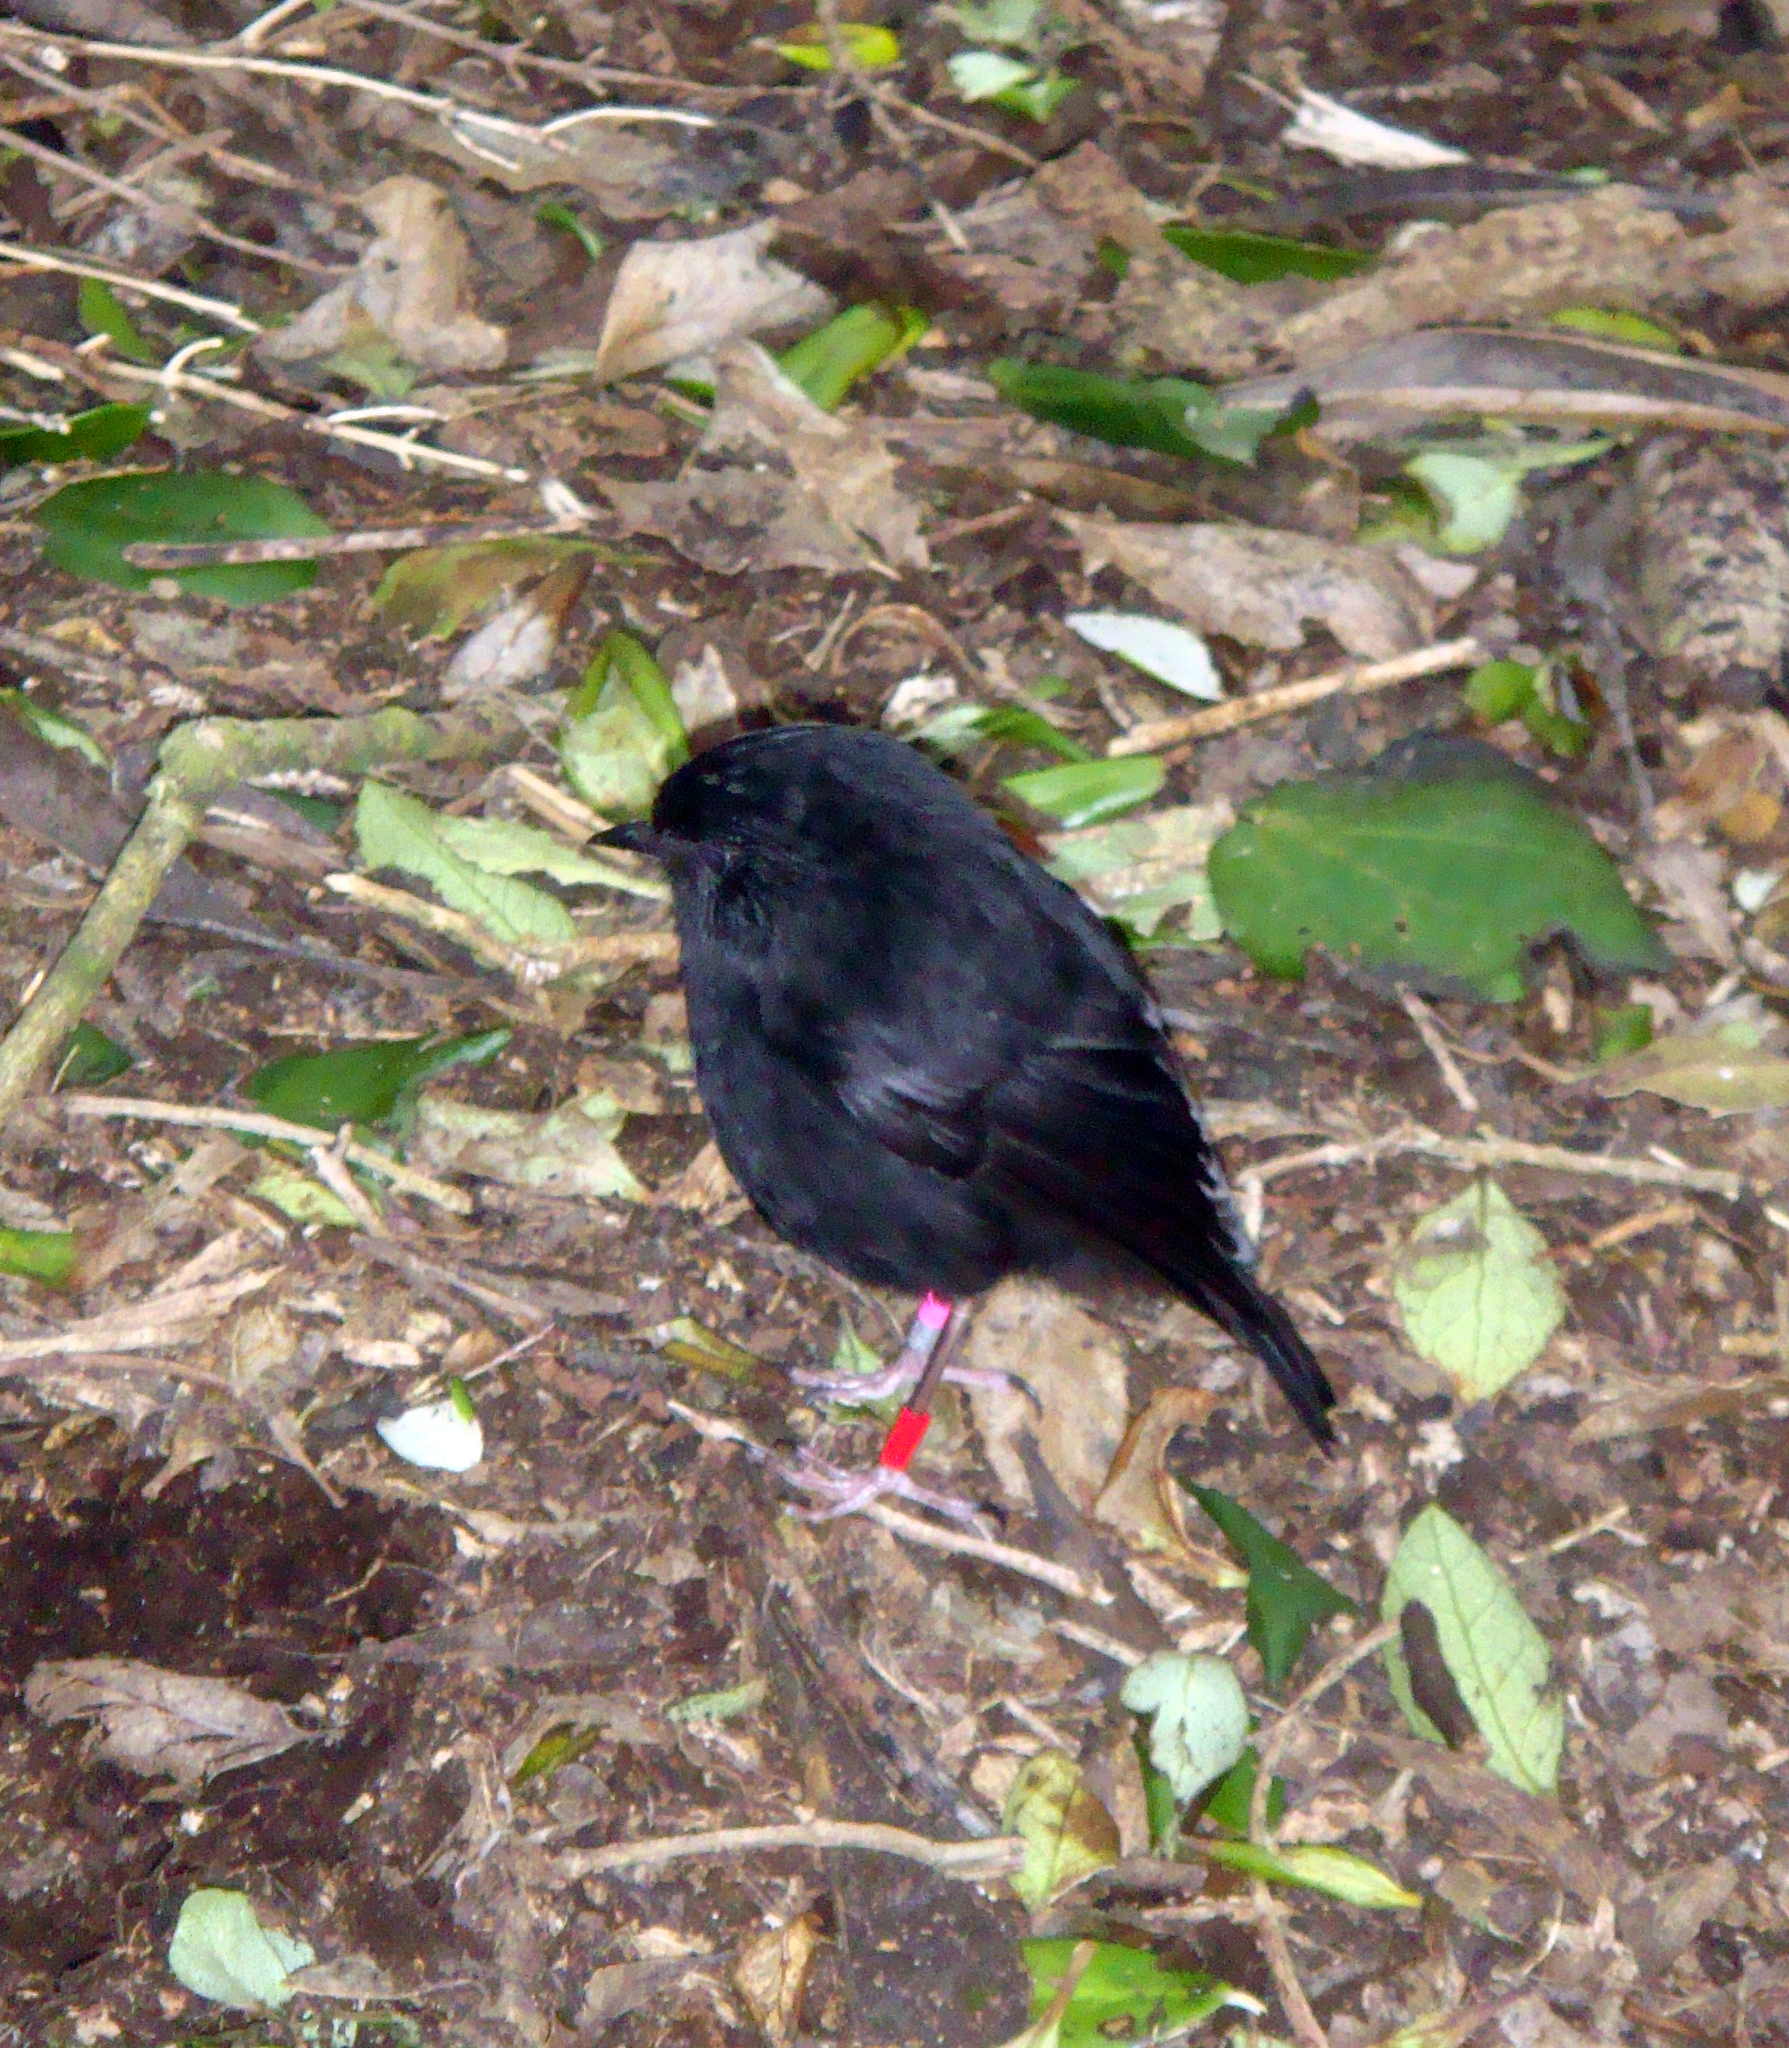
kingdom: Animalia
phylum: Chordata
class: Aves
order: Passeriformes
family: Petroicidae
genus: Petroica
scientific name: Petroica traversi
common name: Black robin
